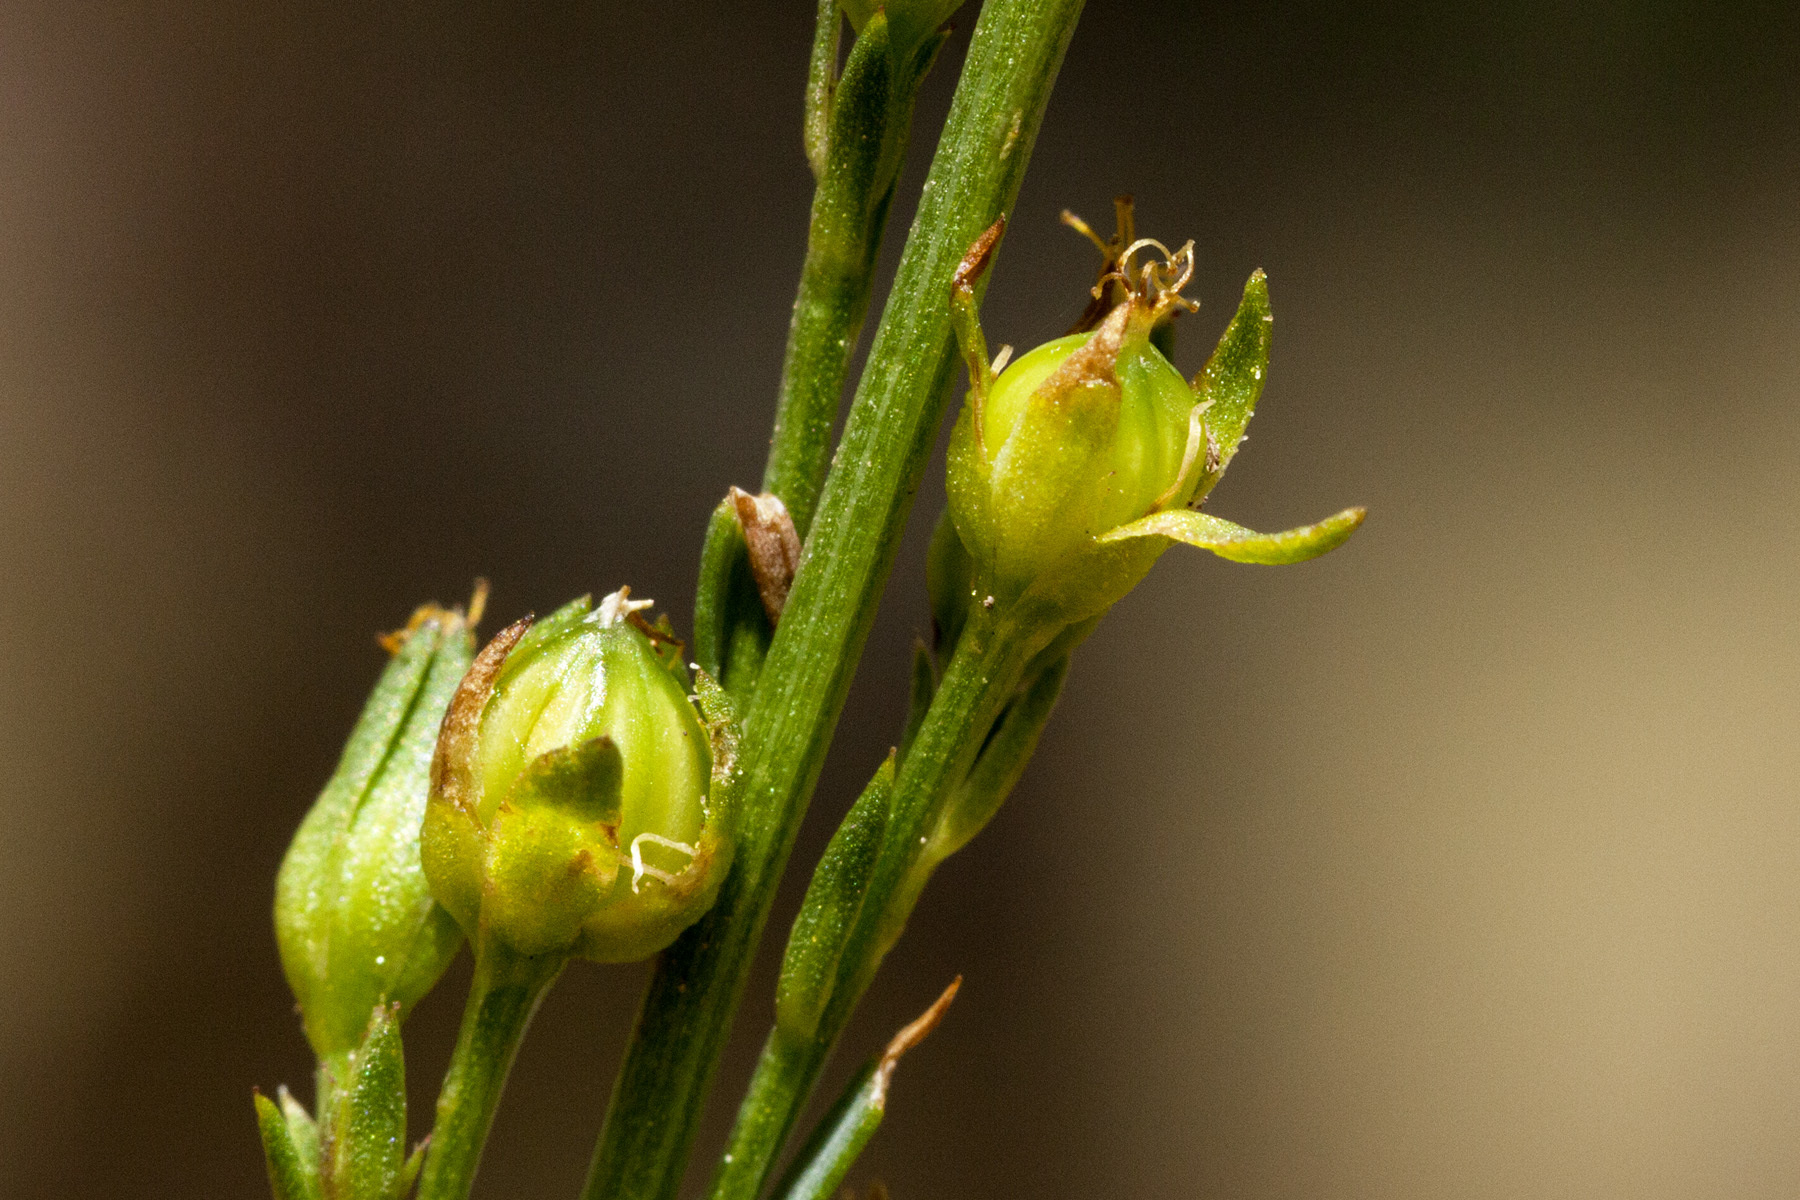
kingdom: Plantae
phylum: Tracheophyta
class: Magnoliopsida
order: Malpighiales
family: Linaceae
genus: Linum
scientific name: Linum neomexicanum
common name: New mexico yellow flax
